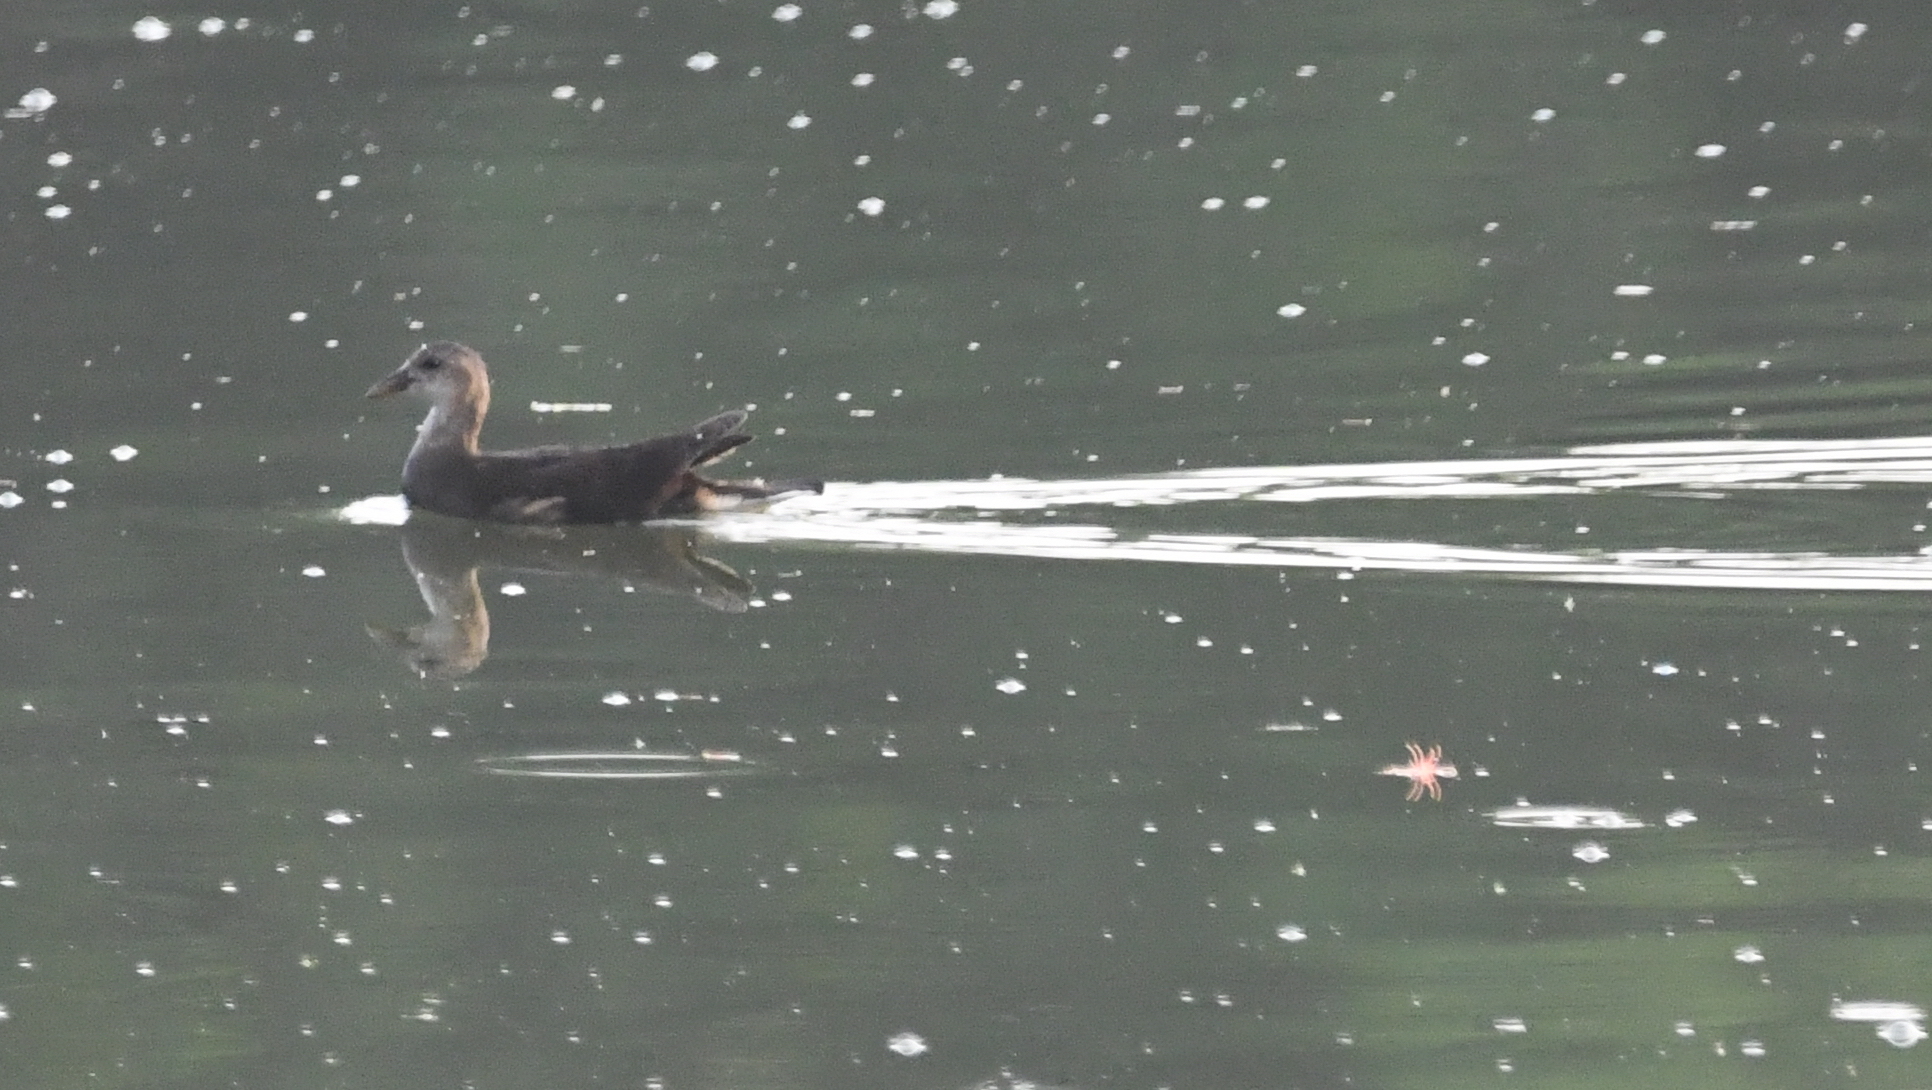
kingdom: Animalia
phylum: Chordata
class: Aves
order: Gruiformes
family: Rallidae
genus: Gallinula
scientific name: Gallinula chloropus
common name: Common moorhen
